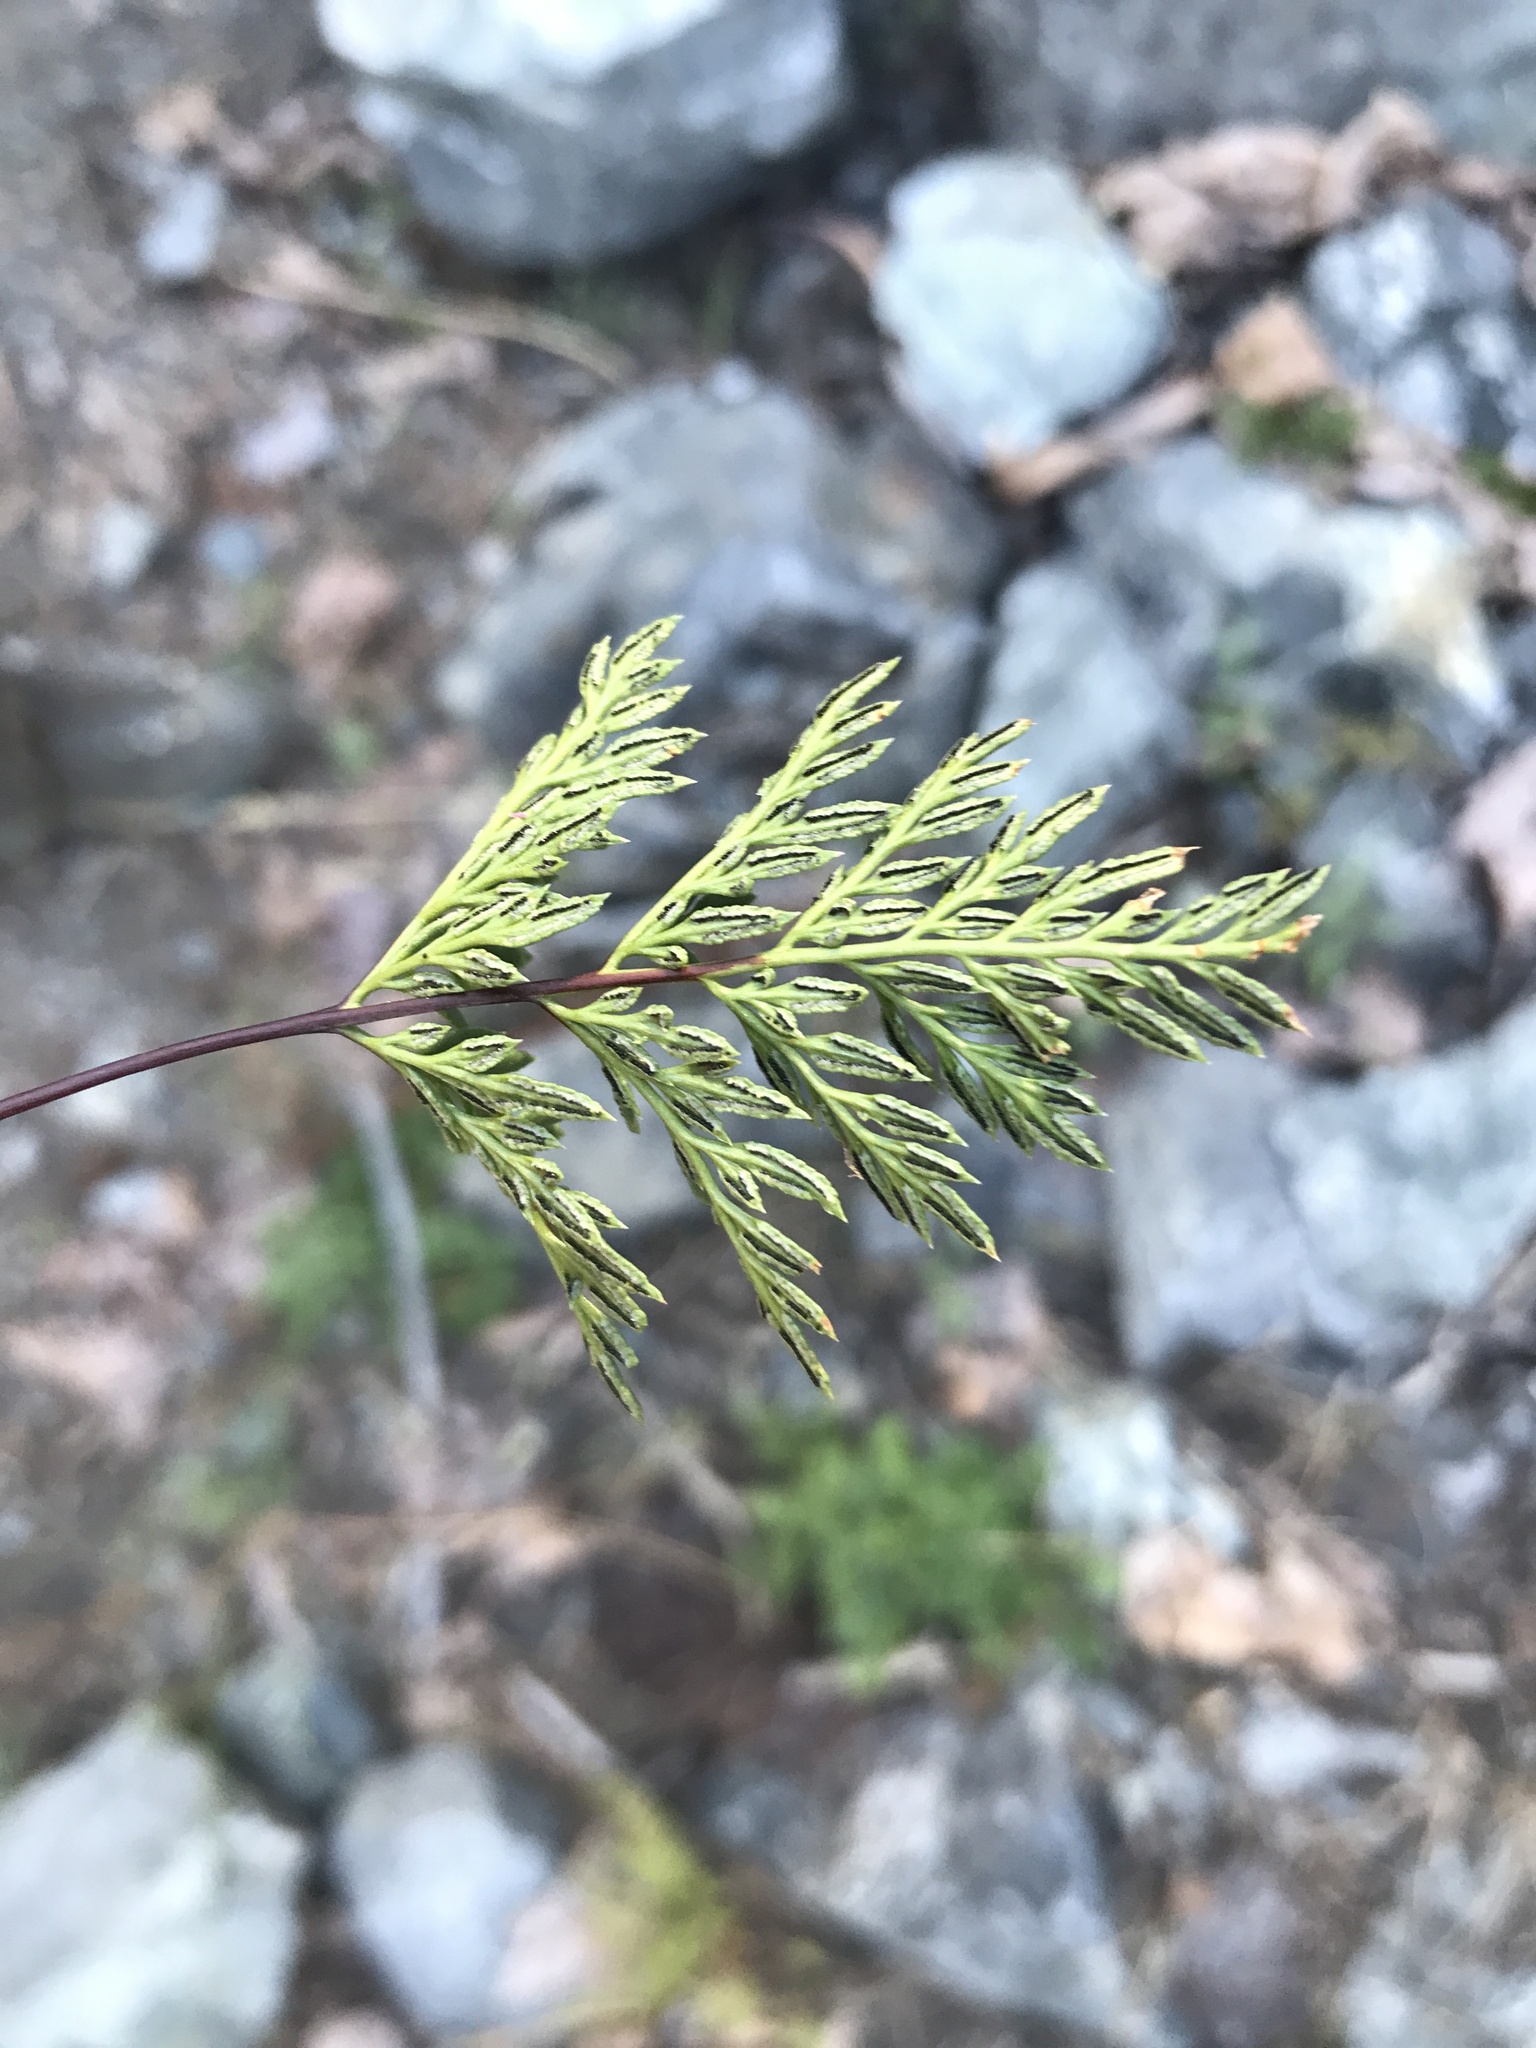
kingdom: Plantae
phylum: Tracheophyta
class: Polypodiopsida
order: Polypodiales
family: Pteridaceae
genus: Aspidotis
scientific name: Aspidotis densa
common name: Indian's dream
